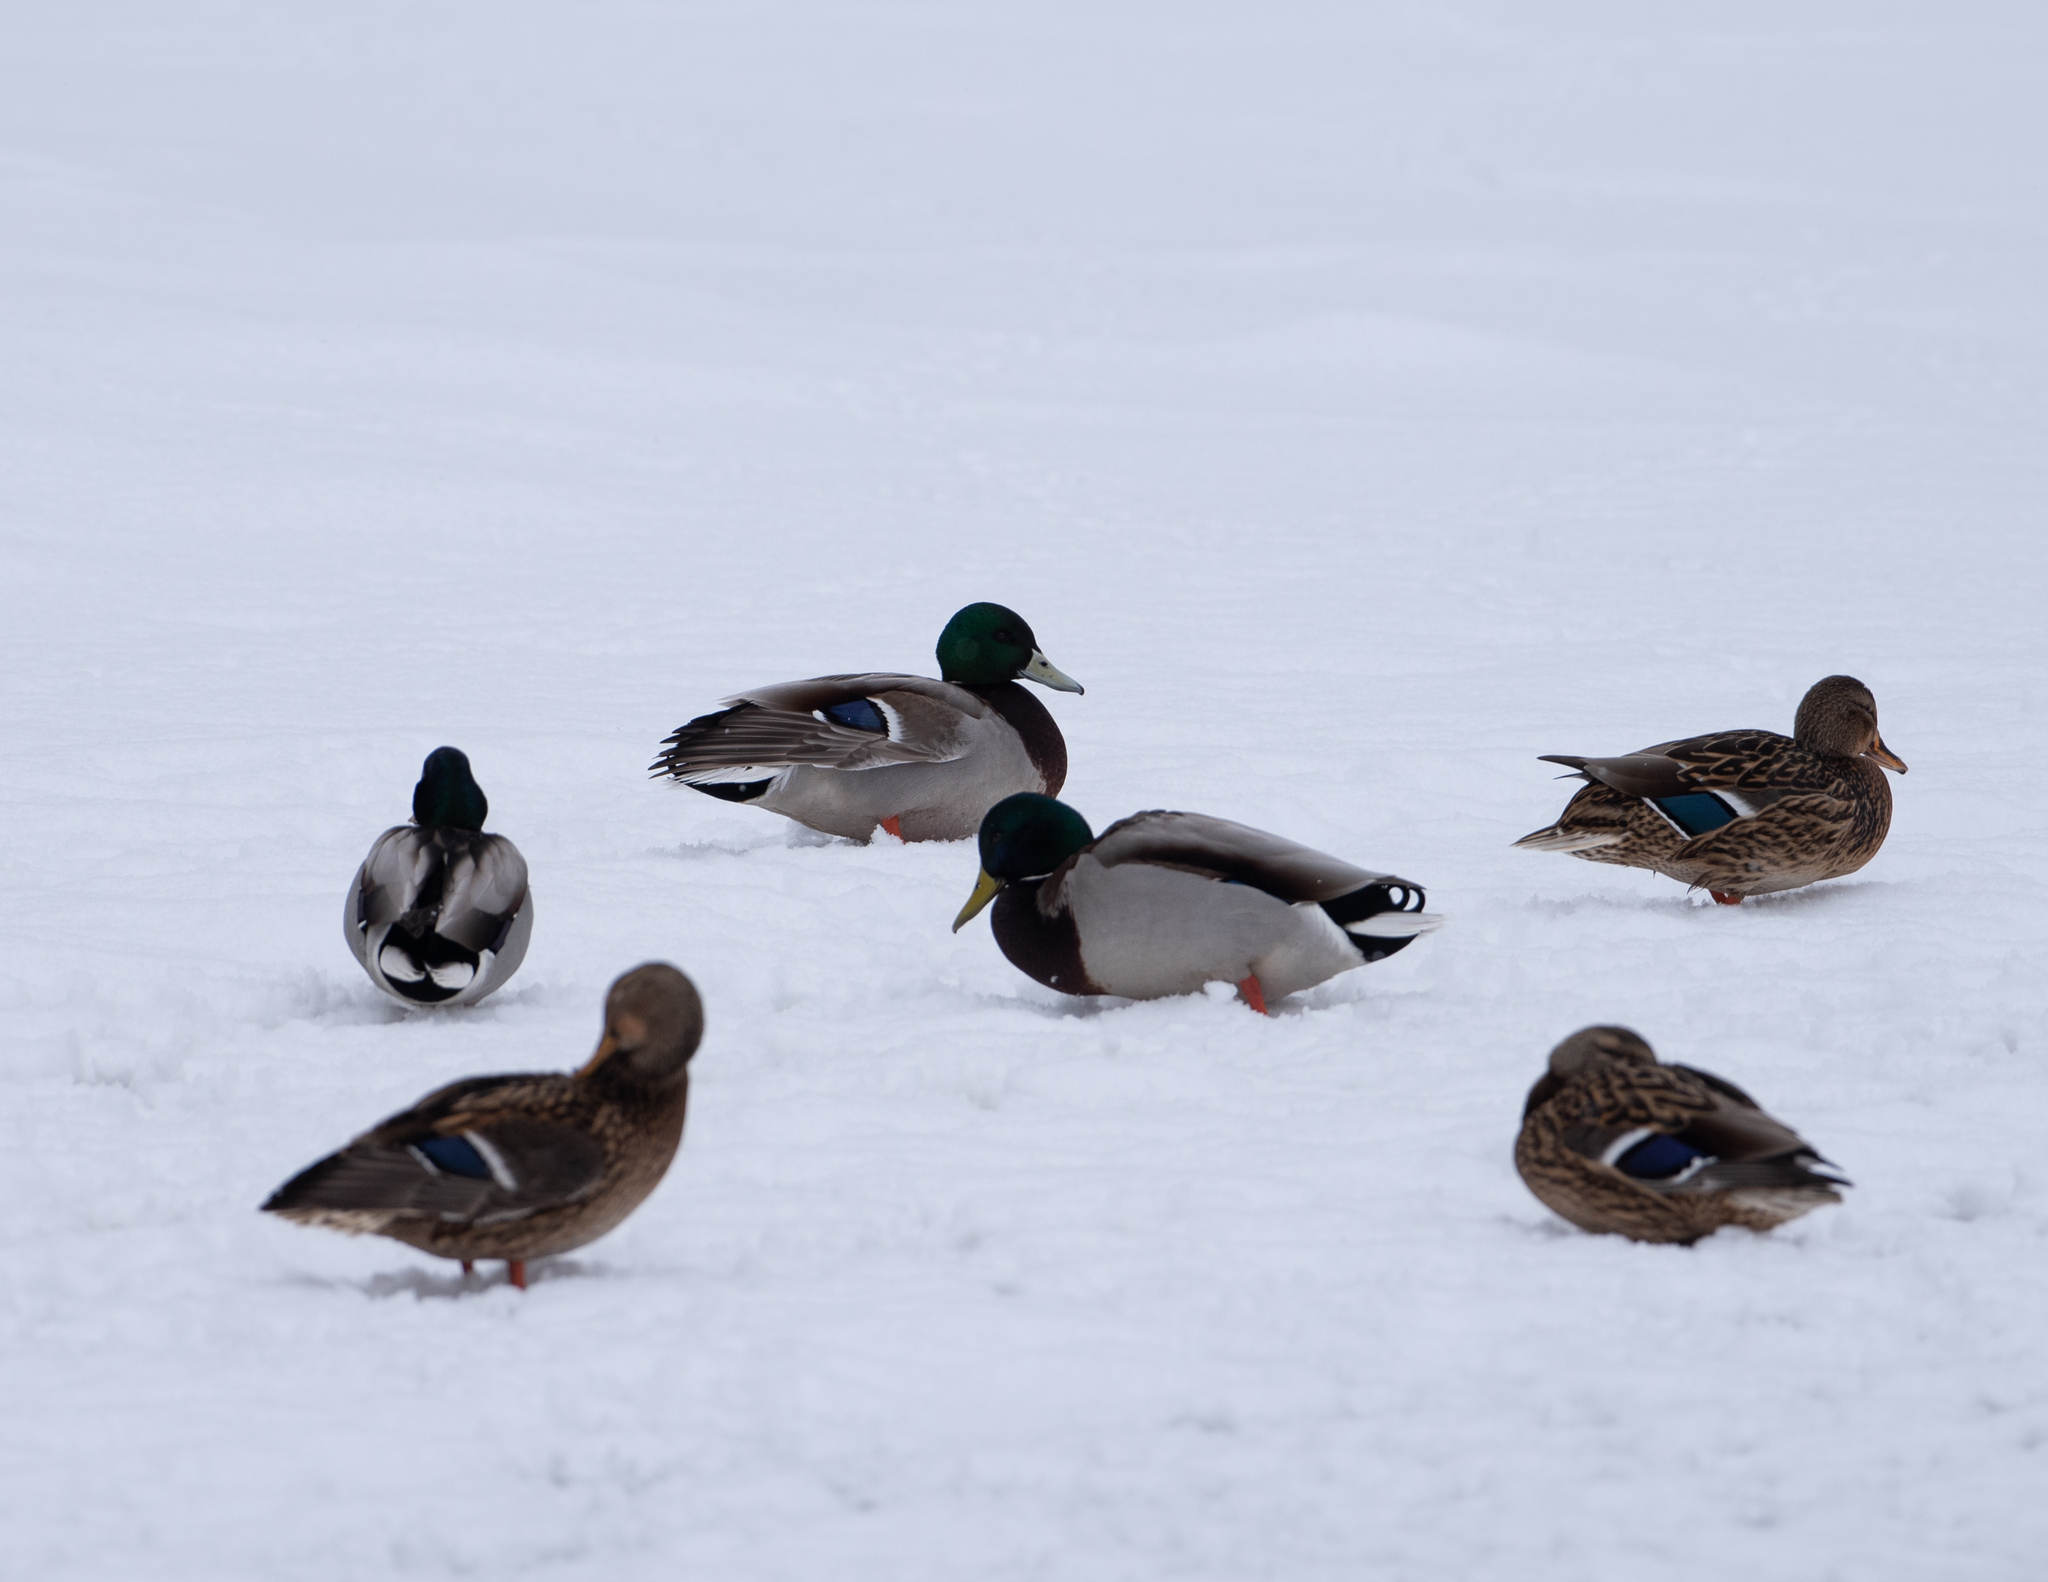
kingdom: Animalia
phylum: Chordata
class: Aves
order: Anseriformes
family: Anatidae
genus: Anas
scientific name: Anas platyrhynchos
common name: Mallard
